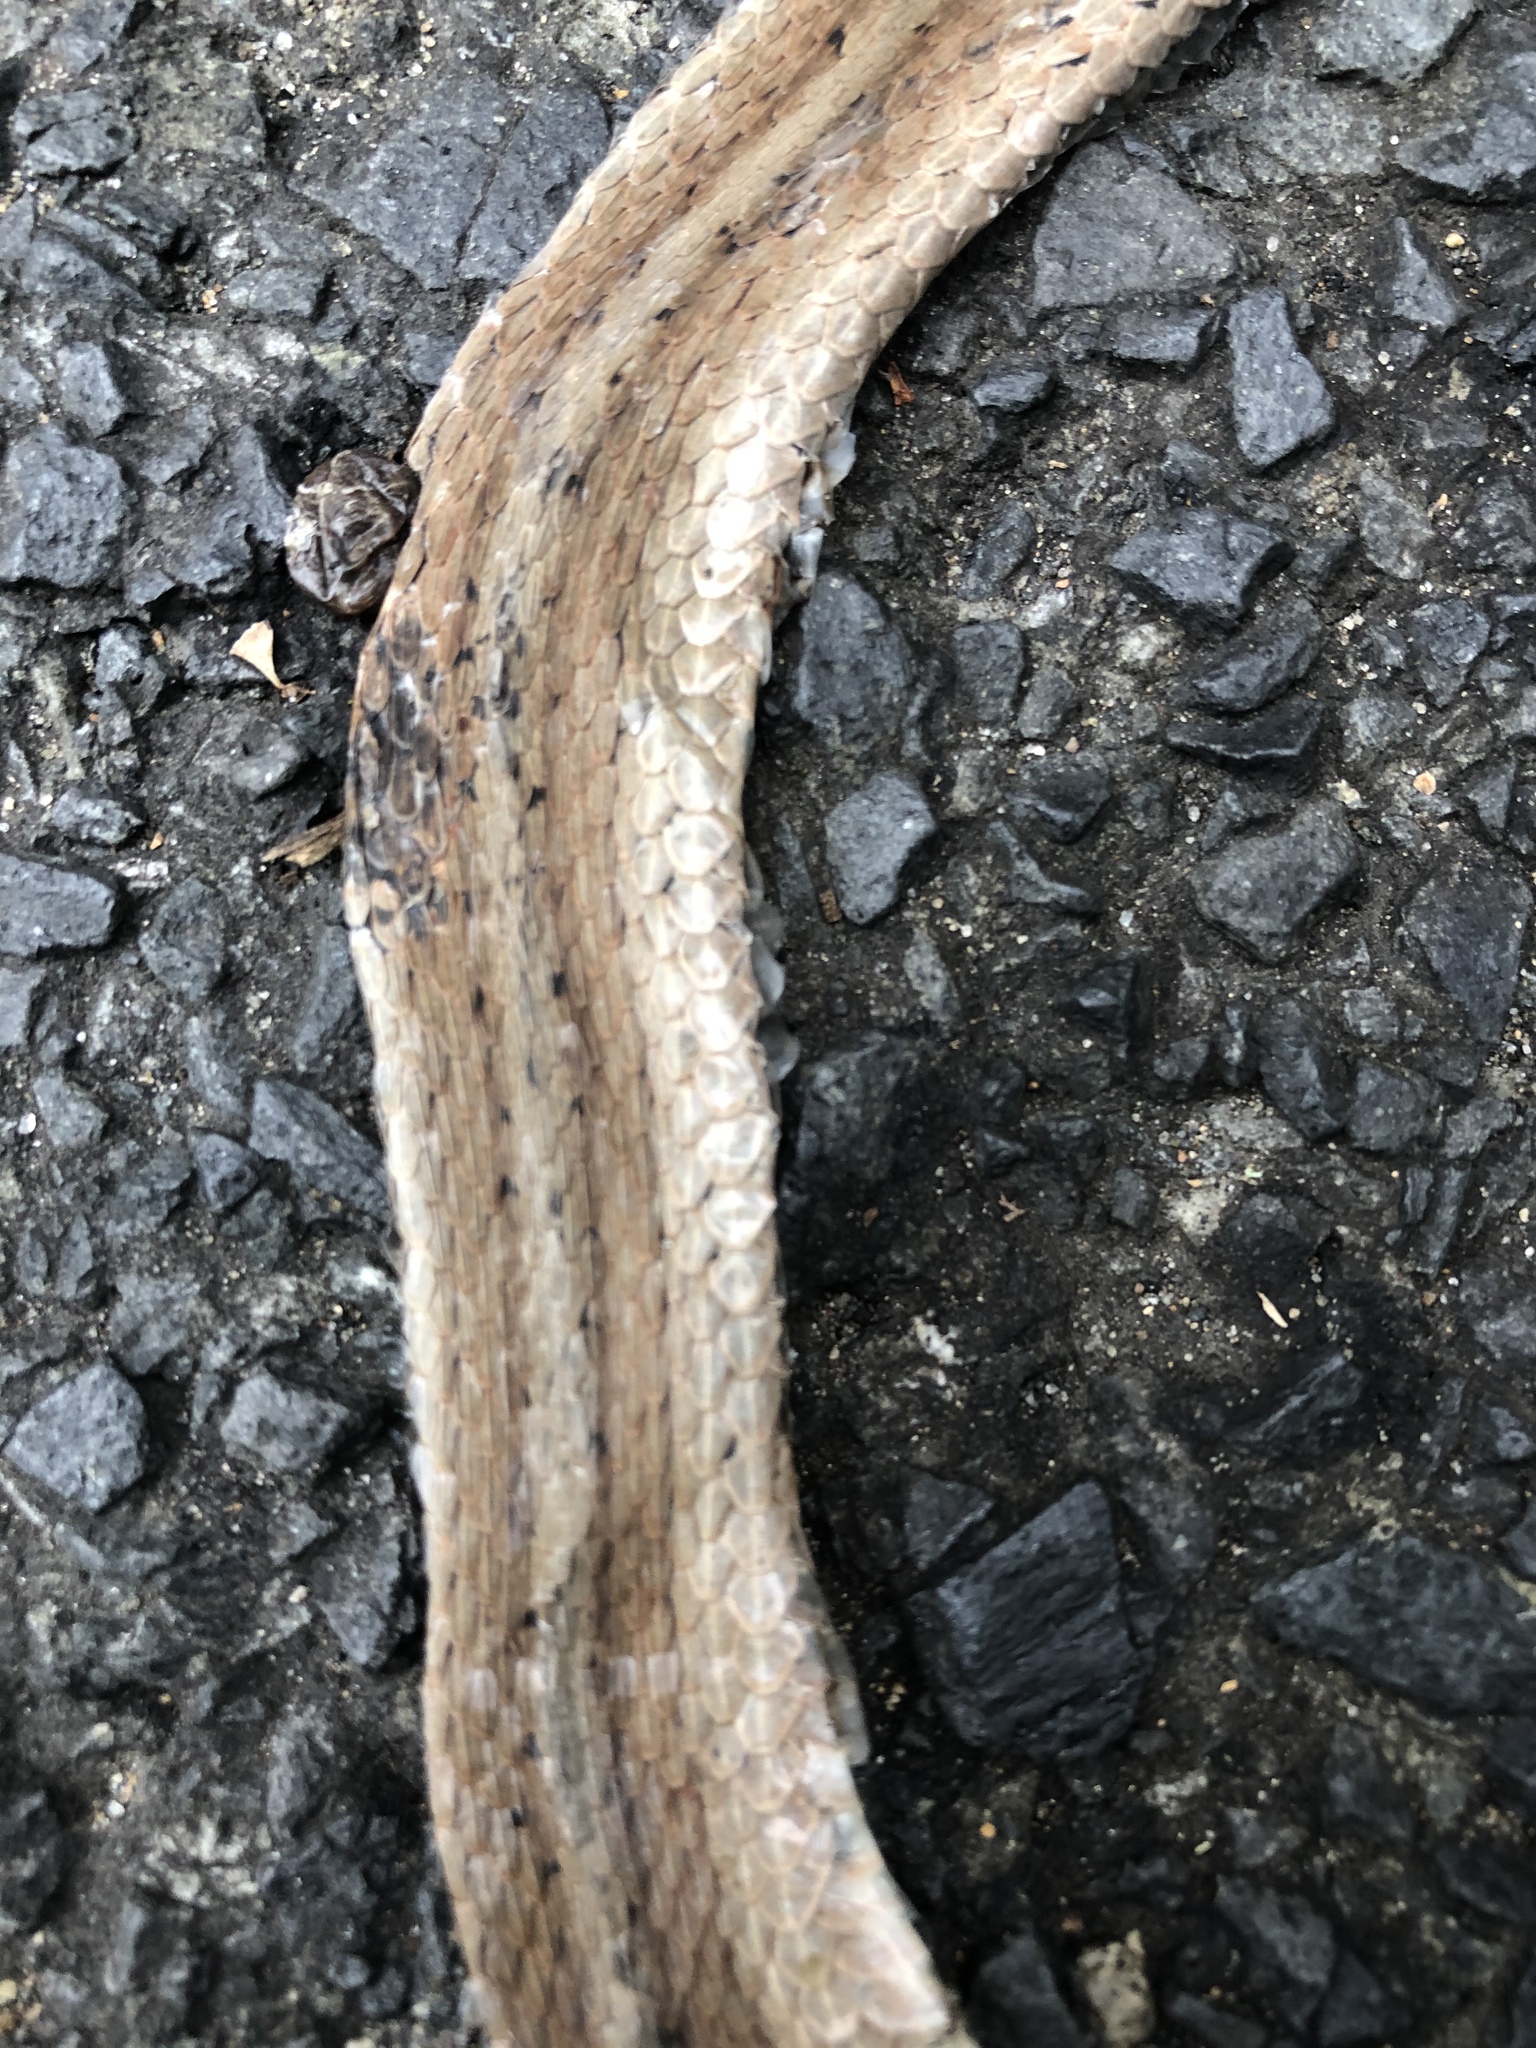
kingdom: Animalia
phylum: Chordata
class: Squamata
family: Colubridae
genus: Storeria
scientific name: Storeria dekayi
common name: (dekay’s) brown snake
